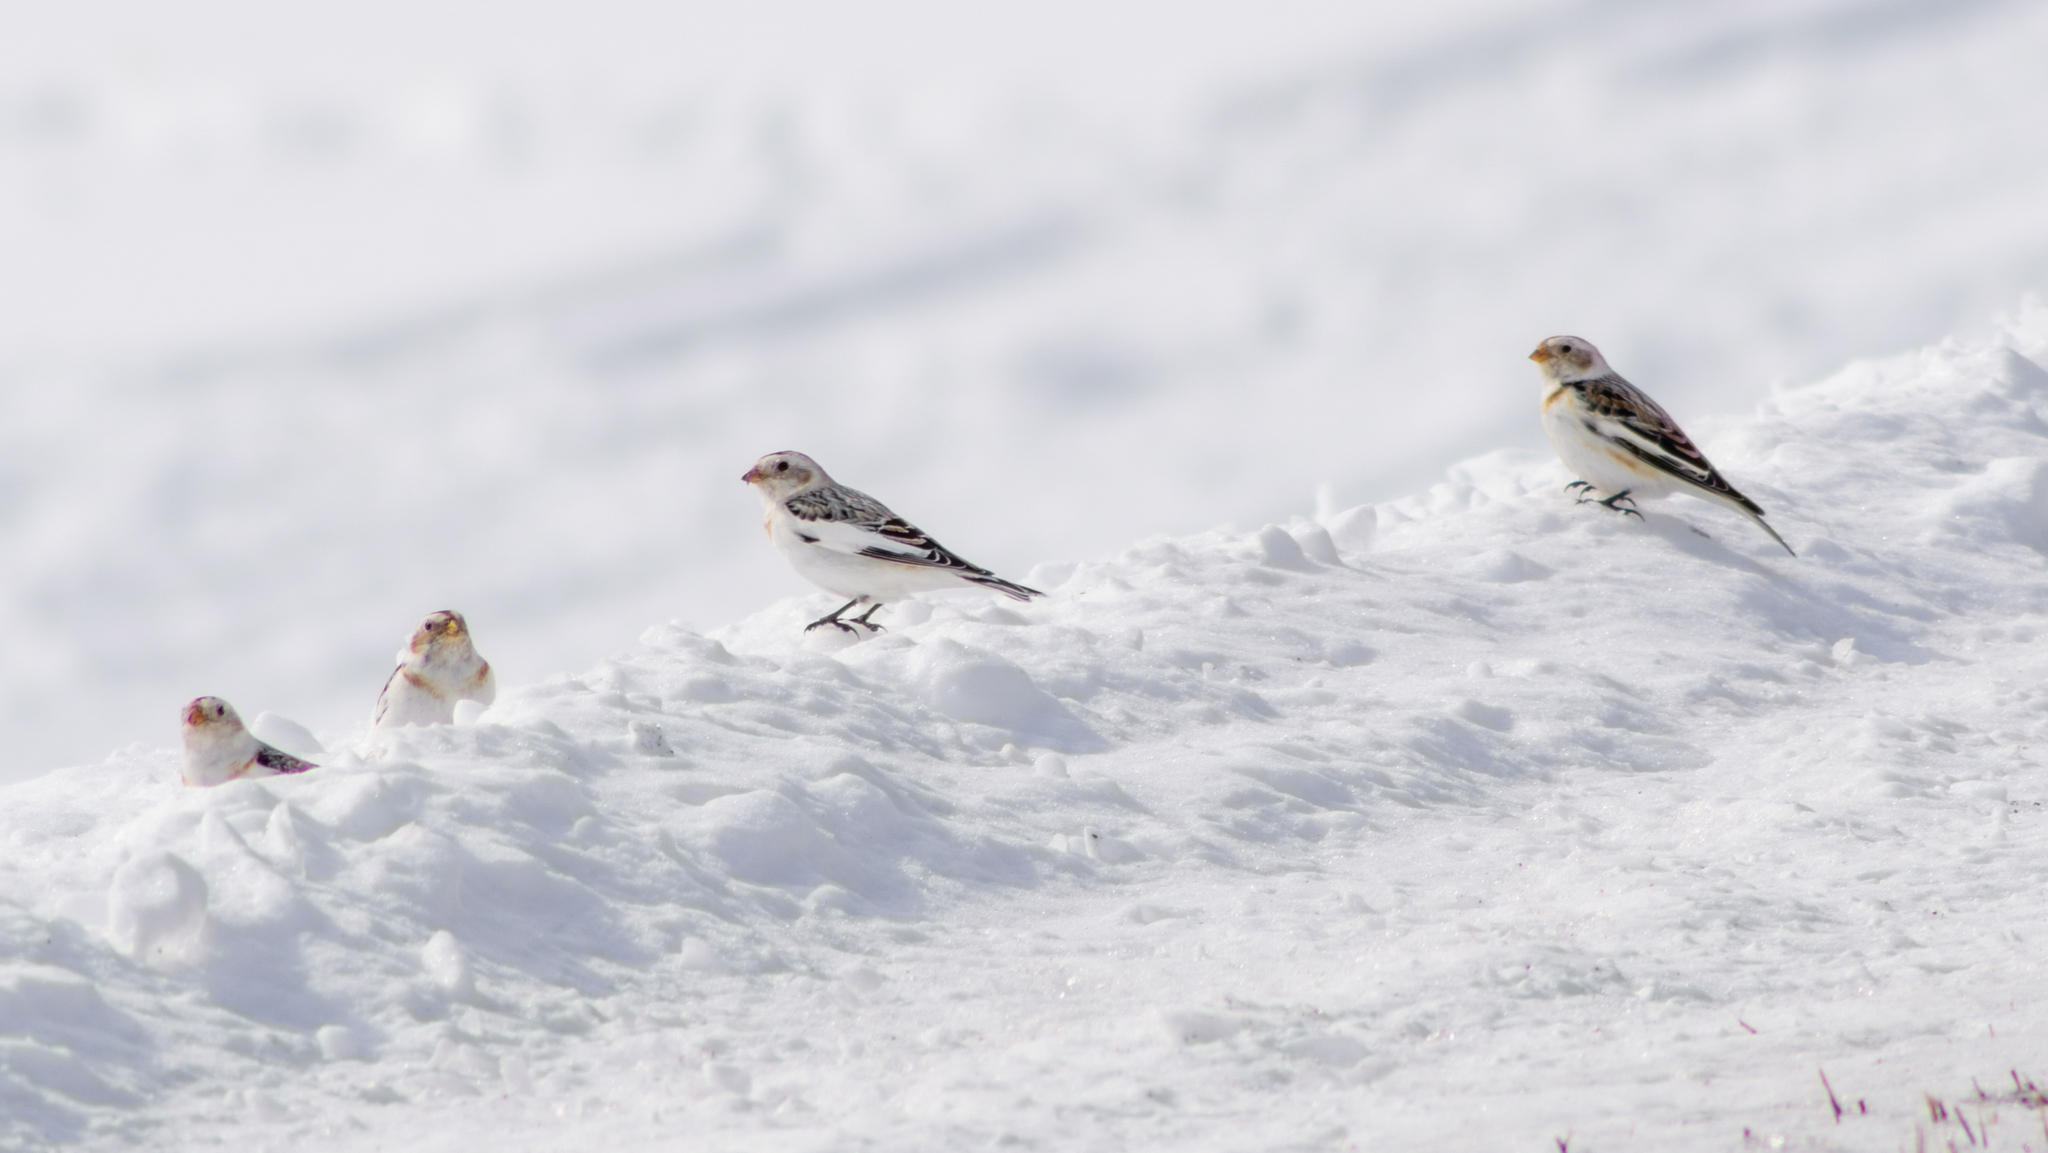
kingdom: Animalia
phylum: Chordata
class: Aves
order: Passeriformes
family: Calcariidae
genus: Plectrophenax
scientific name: Plectrophenax nivalis
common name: Snow bunting
